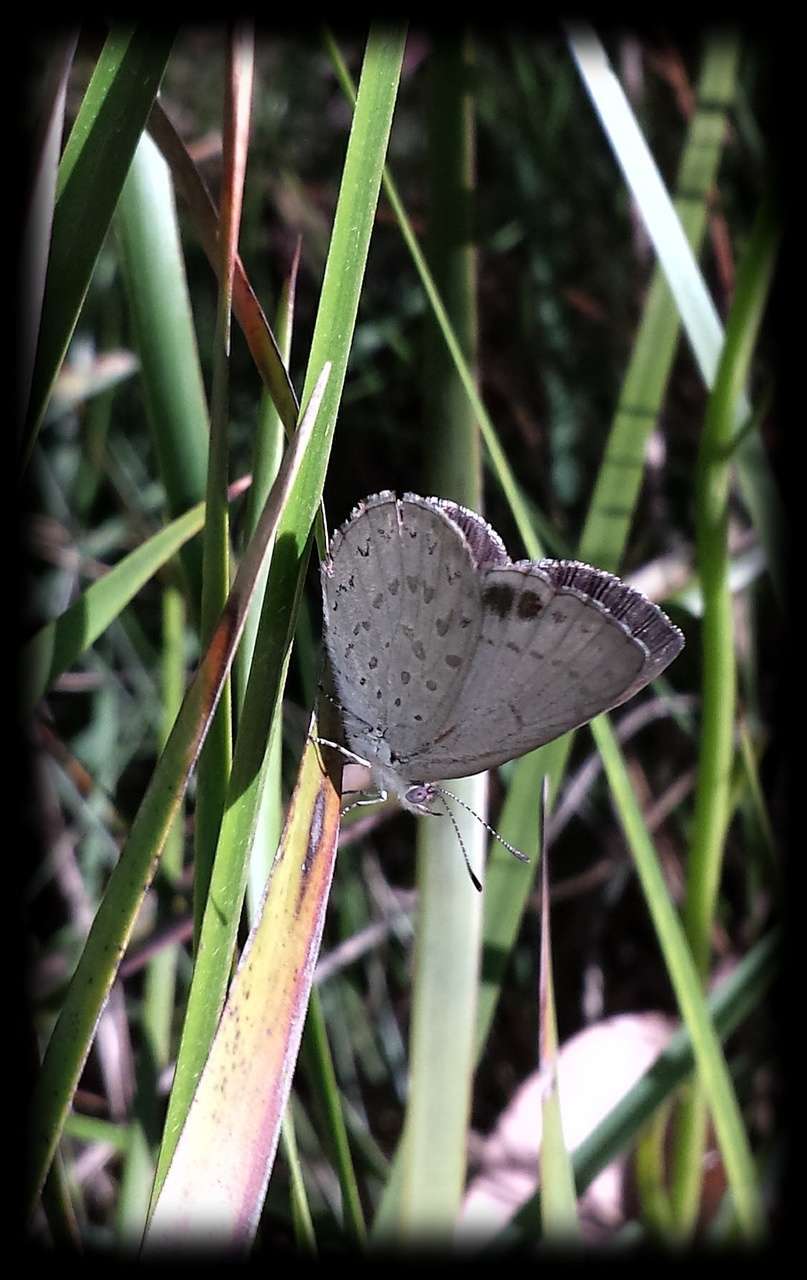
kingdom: Animalia
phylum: Arthropoda
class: Insecta
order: Lepidoptera
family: Lycaenidae
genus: Candalides
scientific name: Candalides
